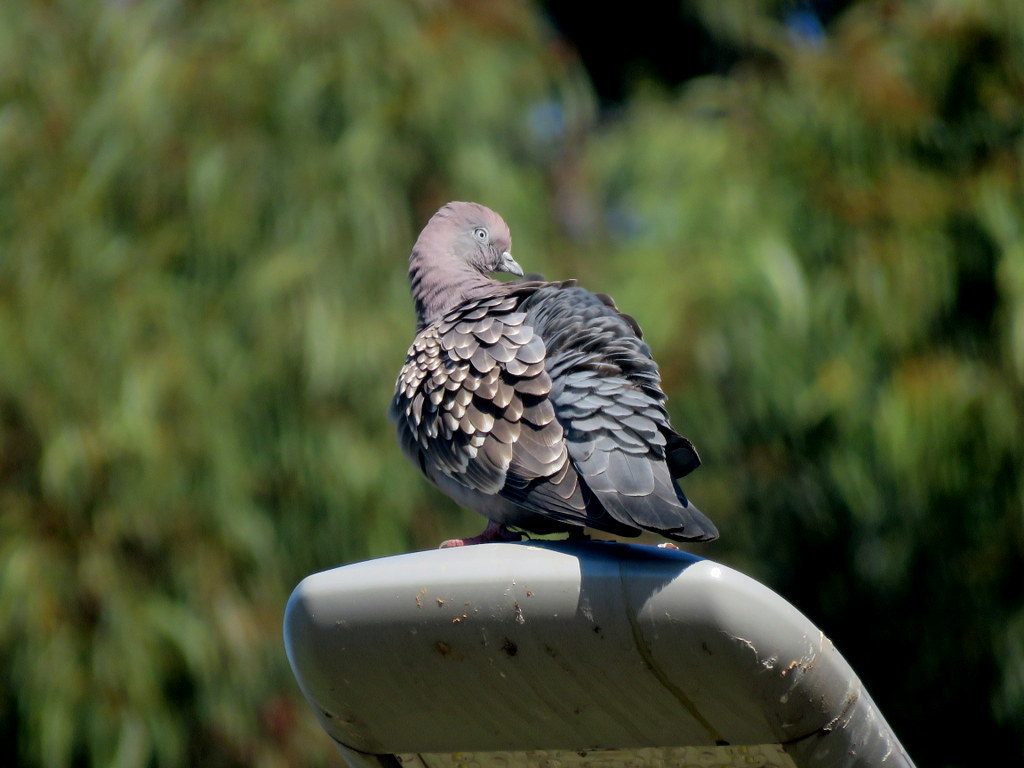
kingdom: Animalia
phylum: Chordata
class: Aves
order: Columbiformes
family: Columbidae
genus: Patagioenas
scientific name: Patagioenas maculosa
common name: Spot-winged pigeon
